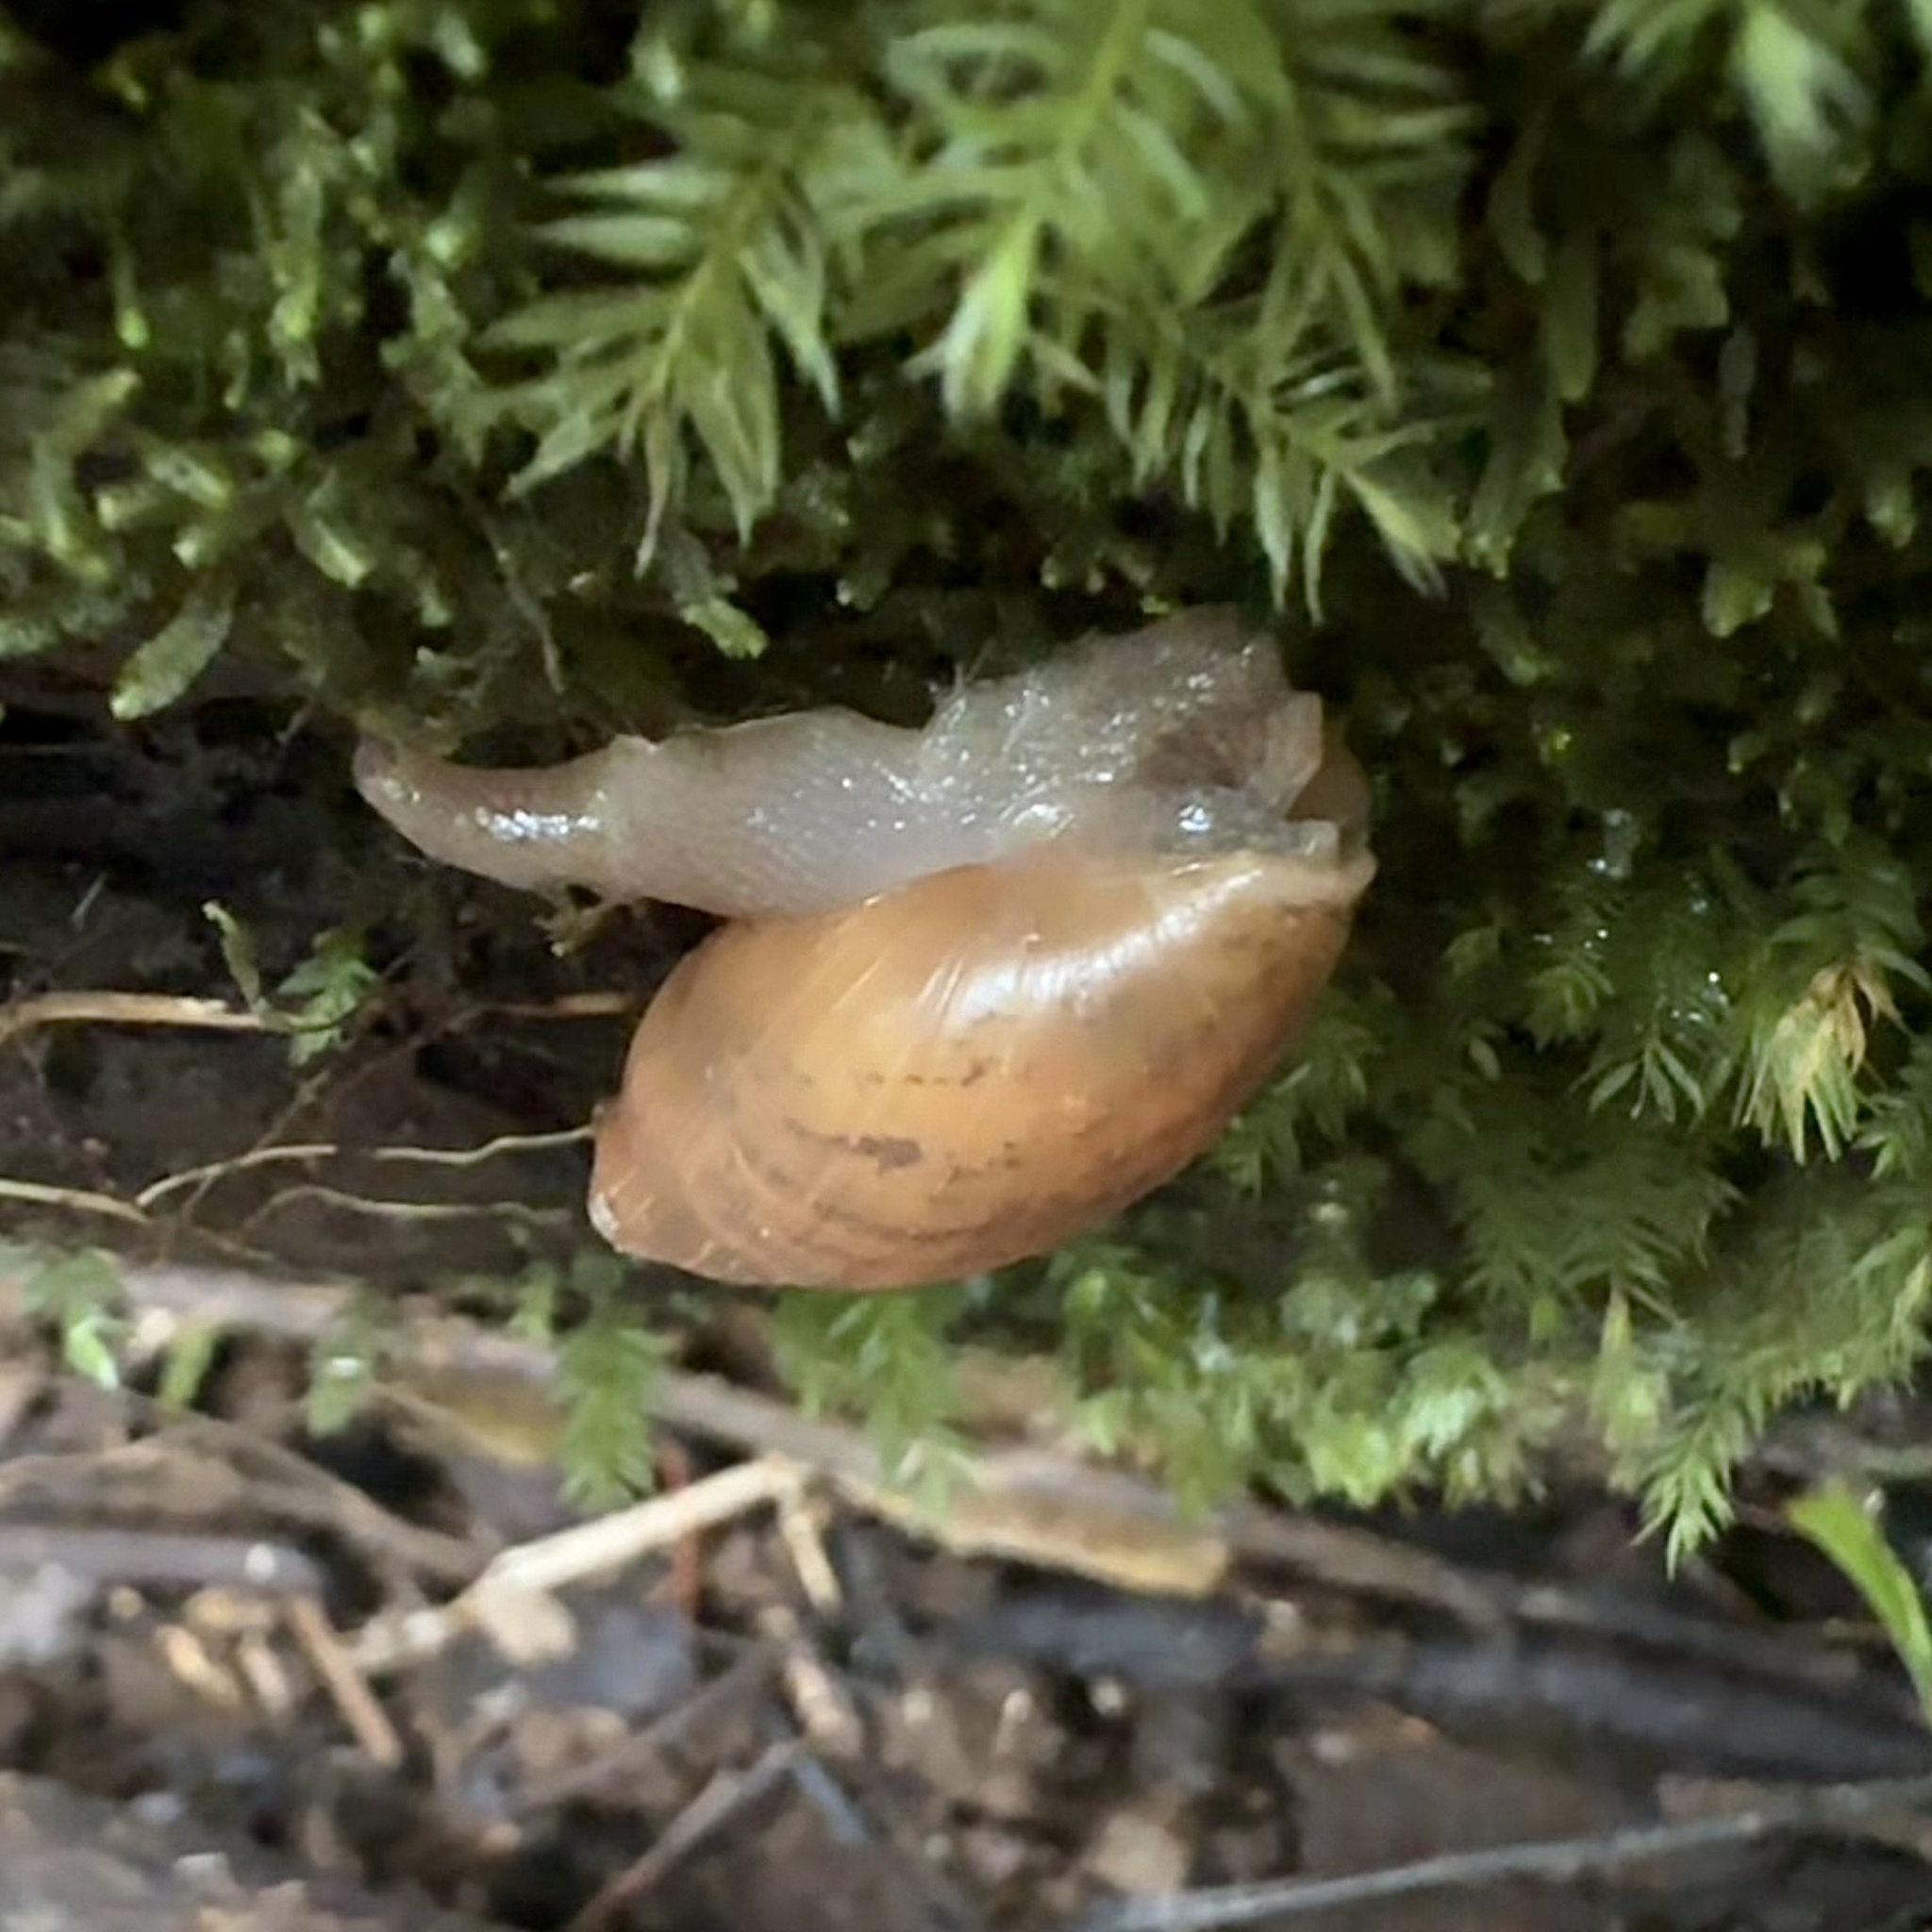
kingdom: Animalia
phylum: Mollusca
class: Gastropoda
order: Stylommatophora
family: Spiraxidae
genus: Euglandina
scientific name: Euglandina rosea
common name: Rosy wolfsnail
